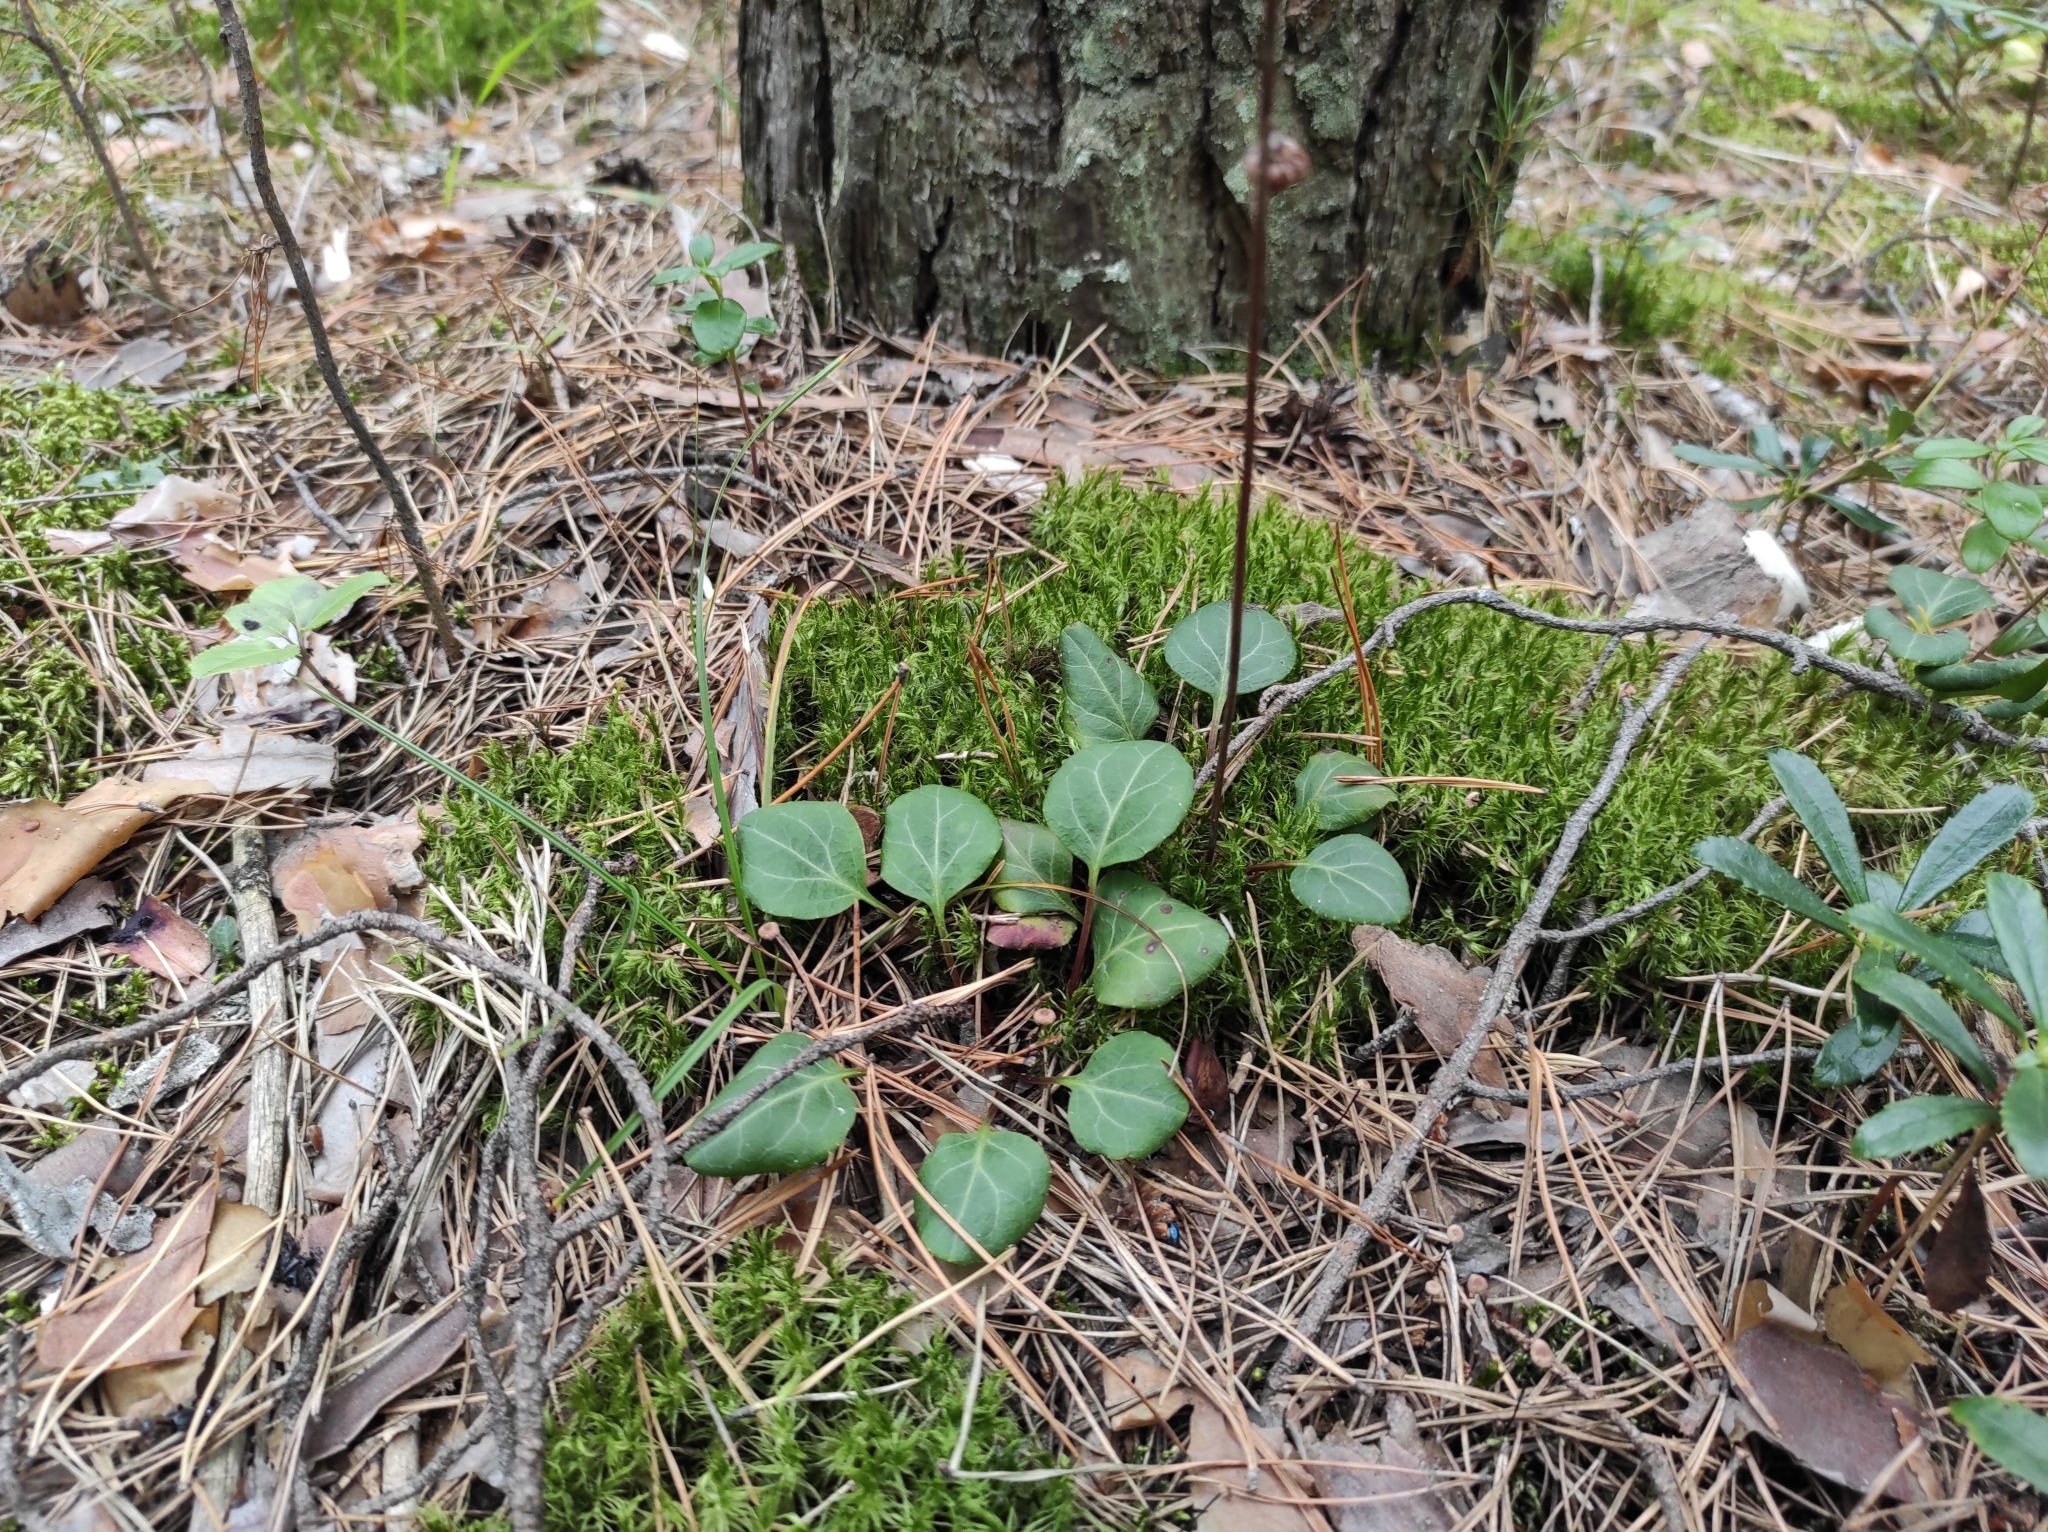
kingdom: Plantae
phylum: Tracheophyta
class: Magnoliopsida
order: Ericales
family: Ericaceae
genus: Pyrola
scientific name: Pyrola chlorantha
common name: Green wintergreen
